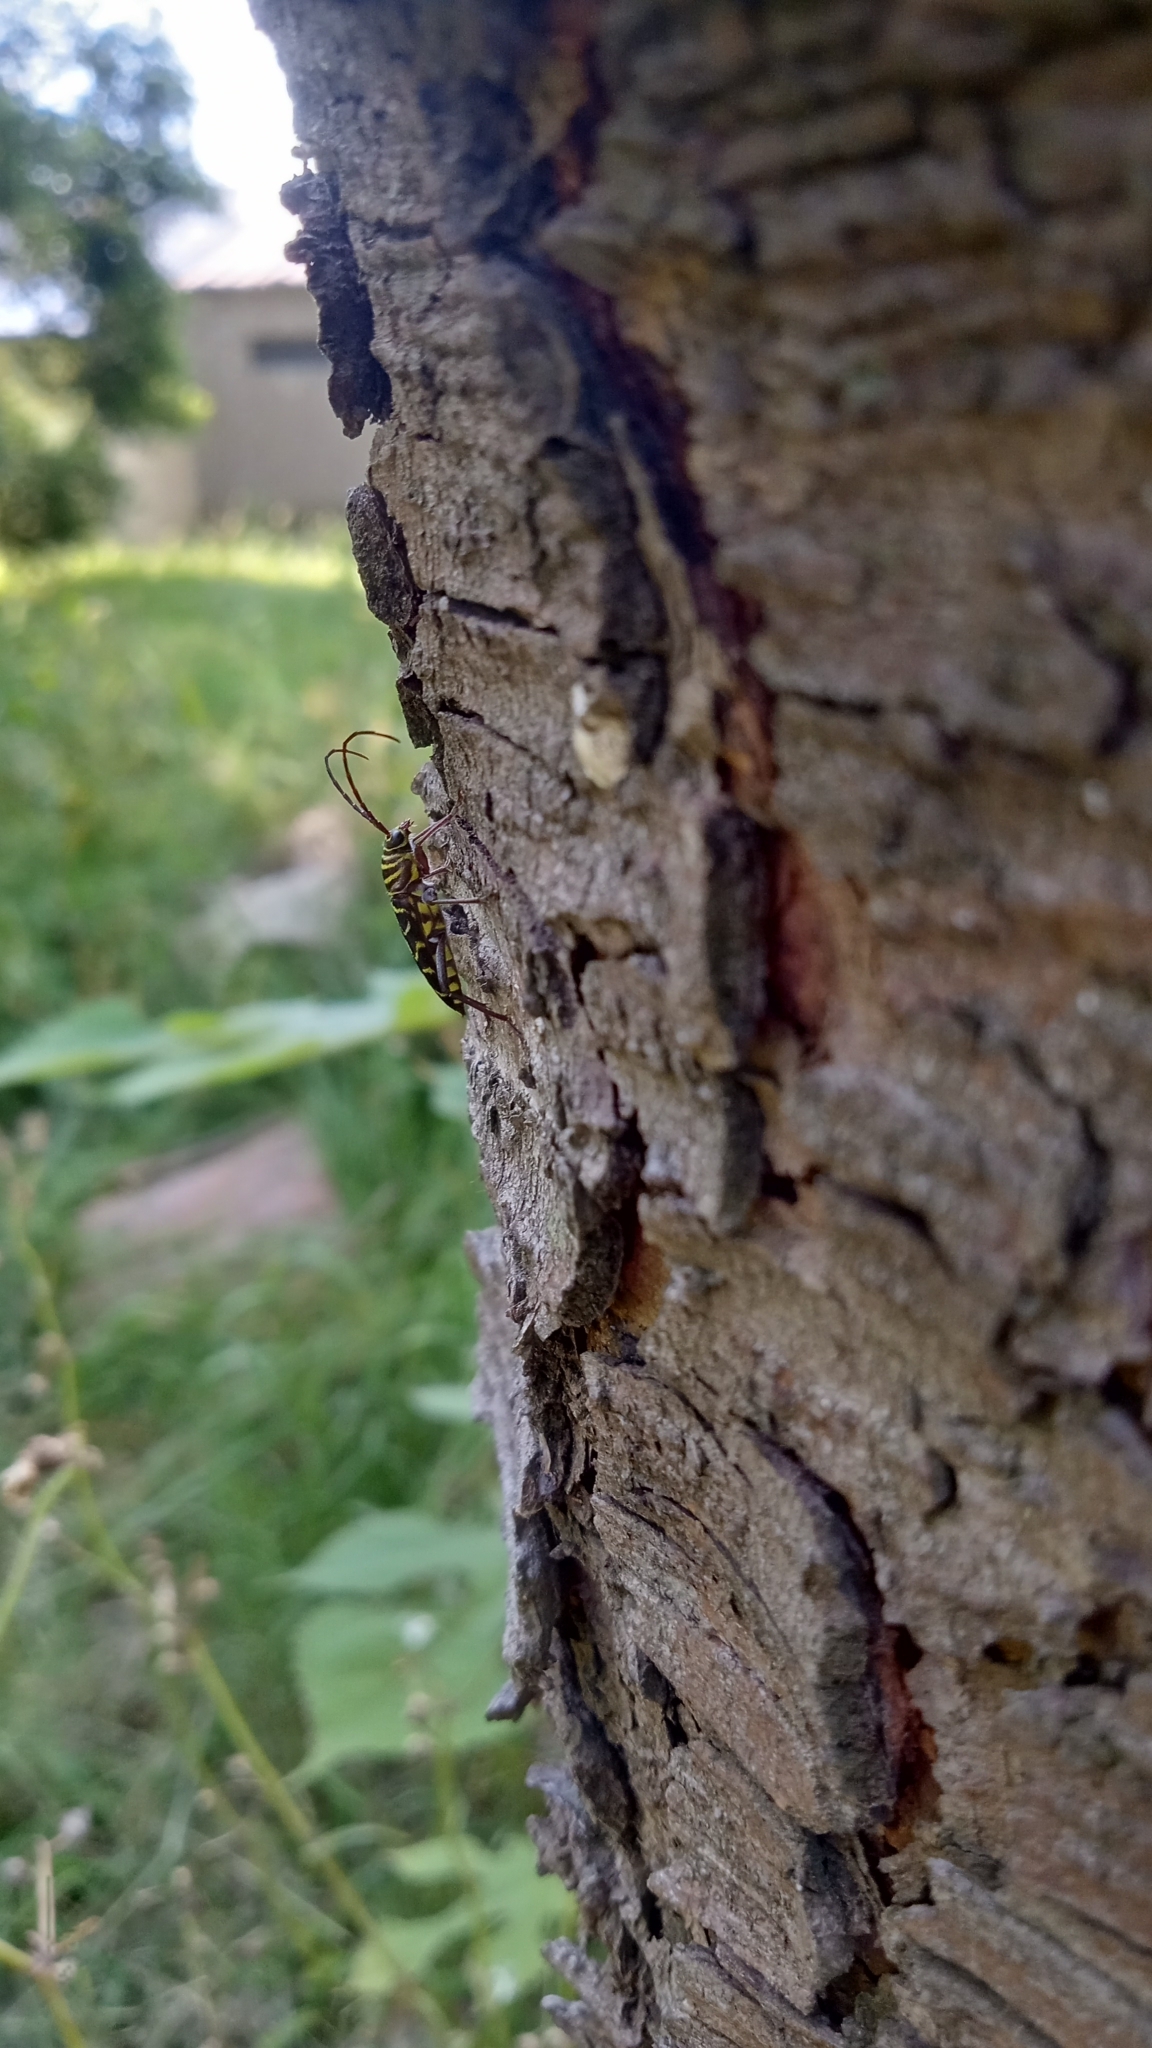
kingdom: Animalia
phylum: Arthropoda
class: Insecta
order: Coleoptera
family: Cerambycidae
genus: Megacyllene
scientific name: Megacyllene acuta
